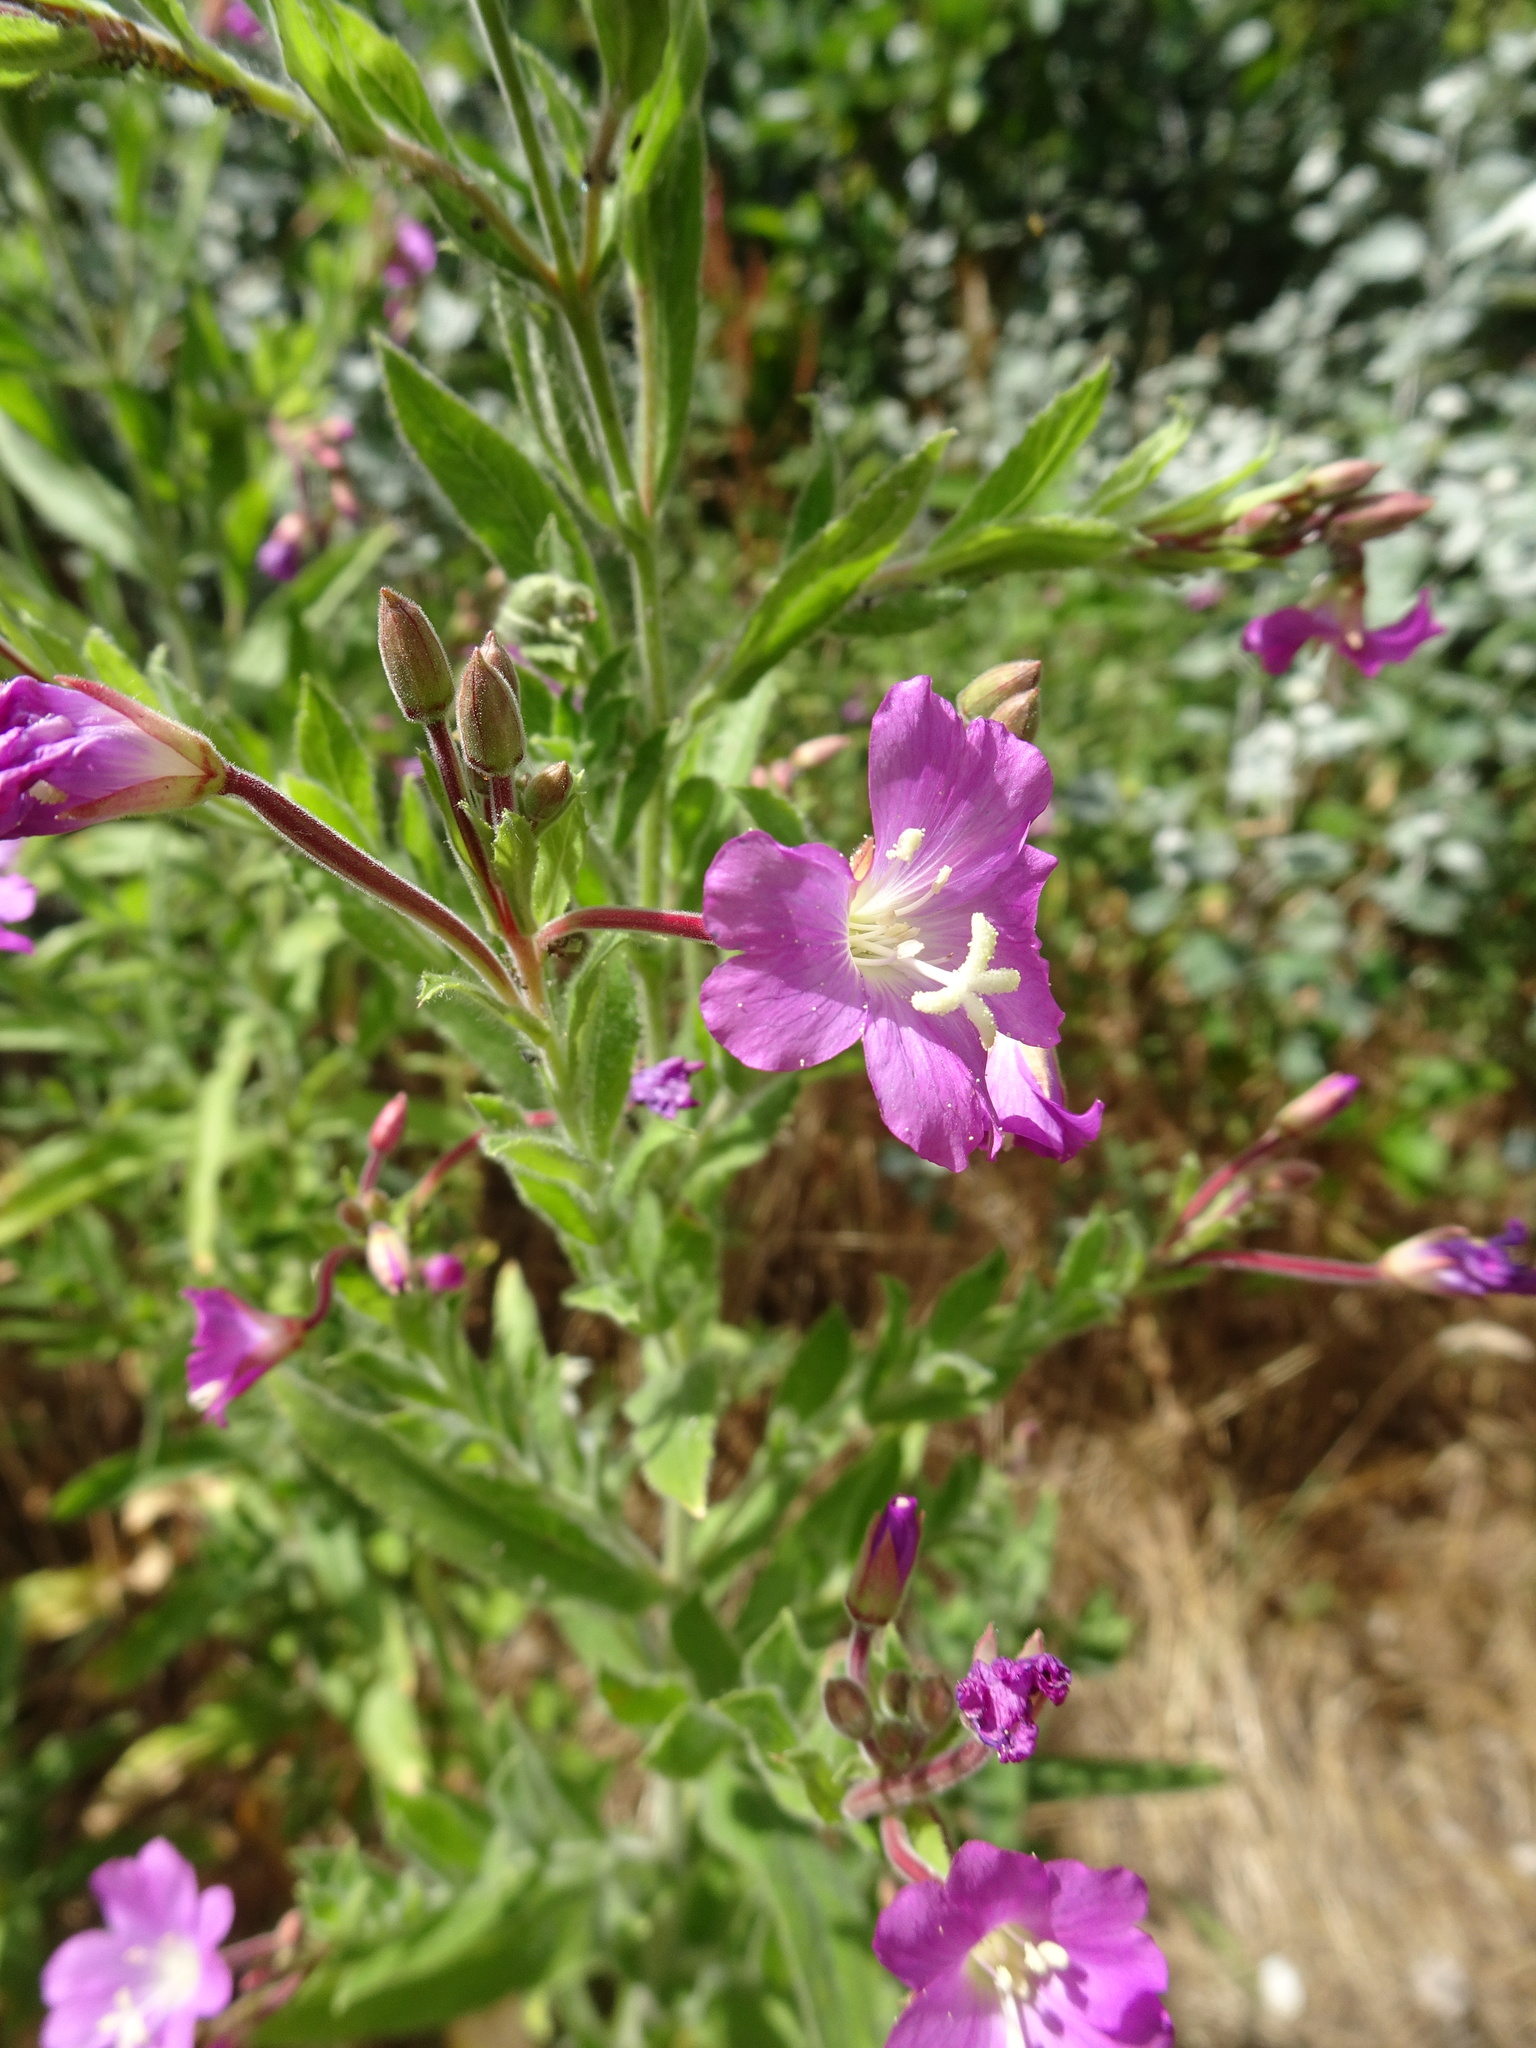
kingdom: Plantae
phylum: Tracheophyta
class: Magnoliopsida
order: Myrtales
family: Onagraceae
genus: Epilobium
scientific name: Epilobium hirsutum
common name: Great willowherb
